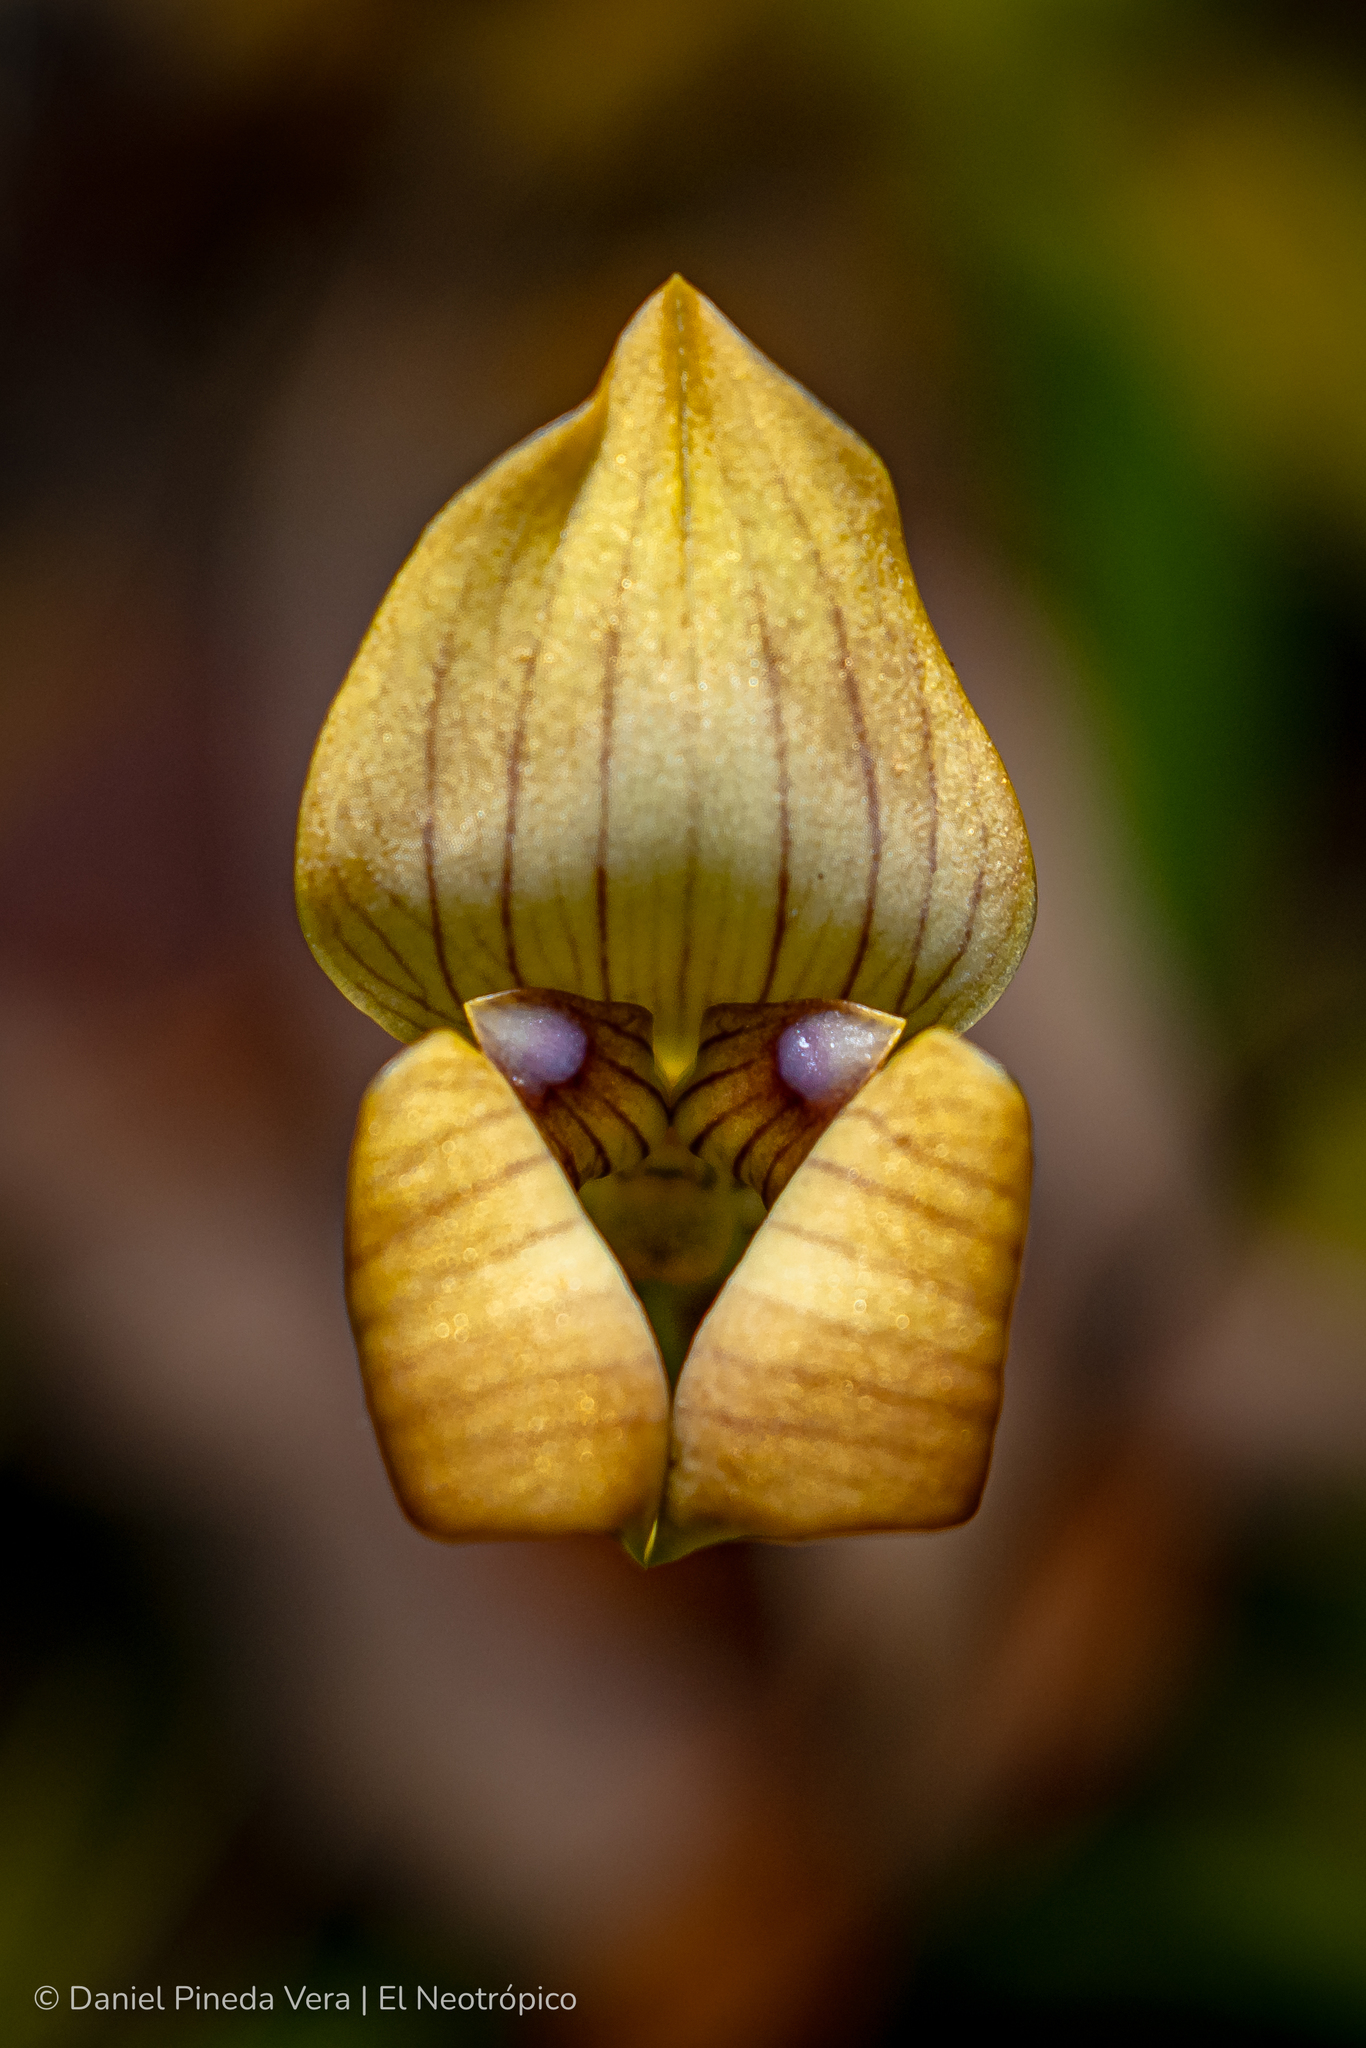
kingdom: Plantae
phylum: Tracheophyta
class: Liliopsida
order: Asparagales
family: Orchidaceae
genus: Maxillaria
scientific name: Maxillaria egertoniana
